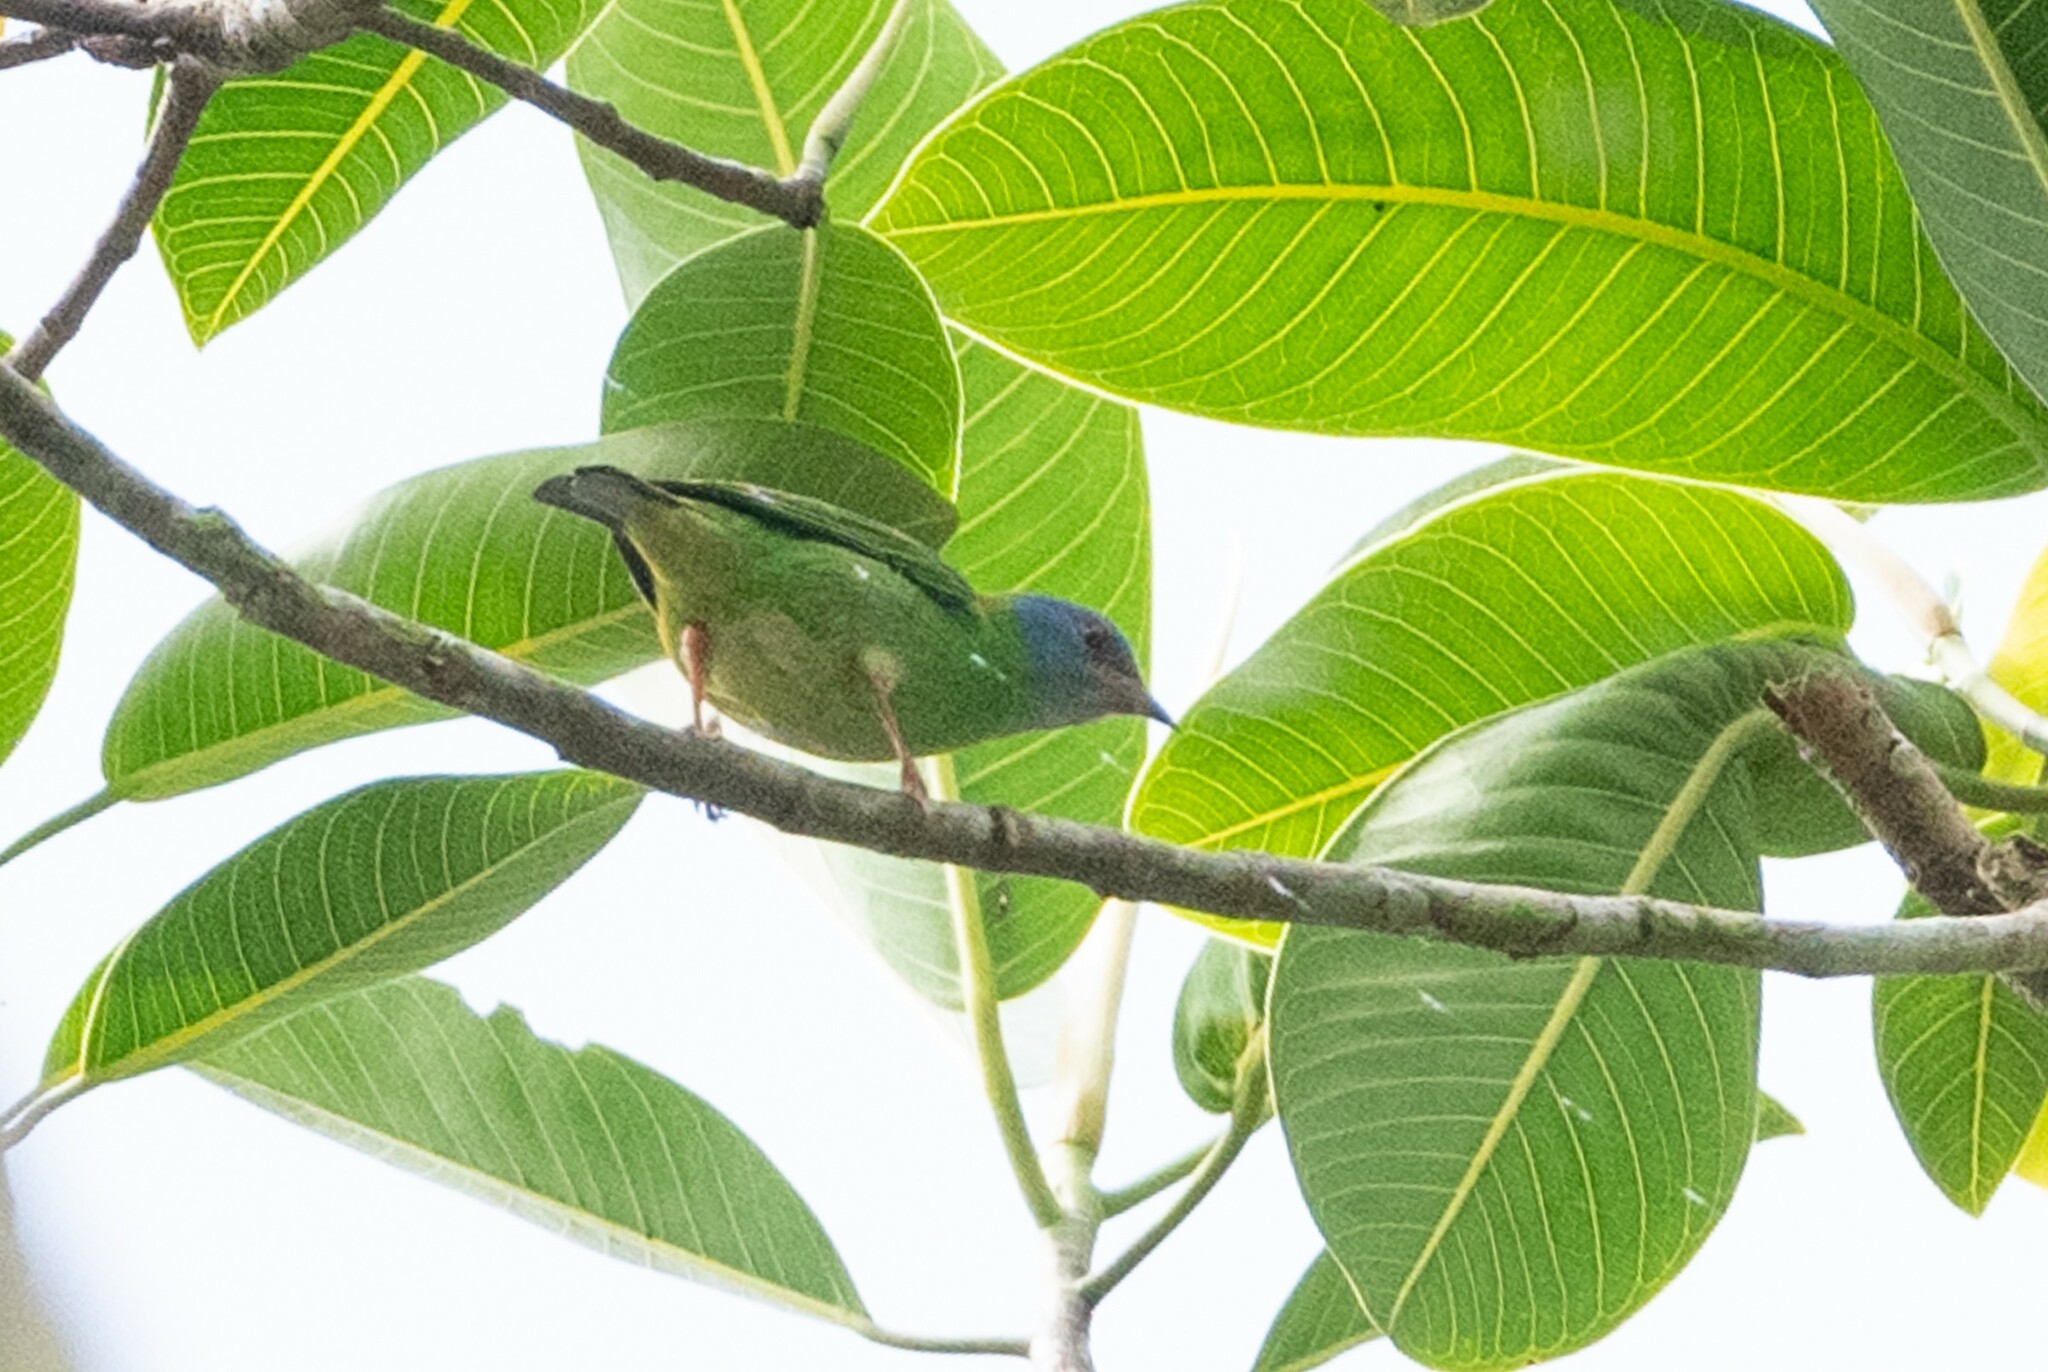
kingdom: Animalia
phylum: Chordata
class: Aves
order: Passeriformes
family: Thraupidae
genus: Dacnis
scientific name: Dacnis cayana
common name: Blue dacnis
